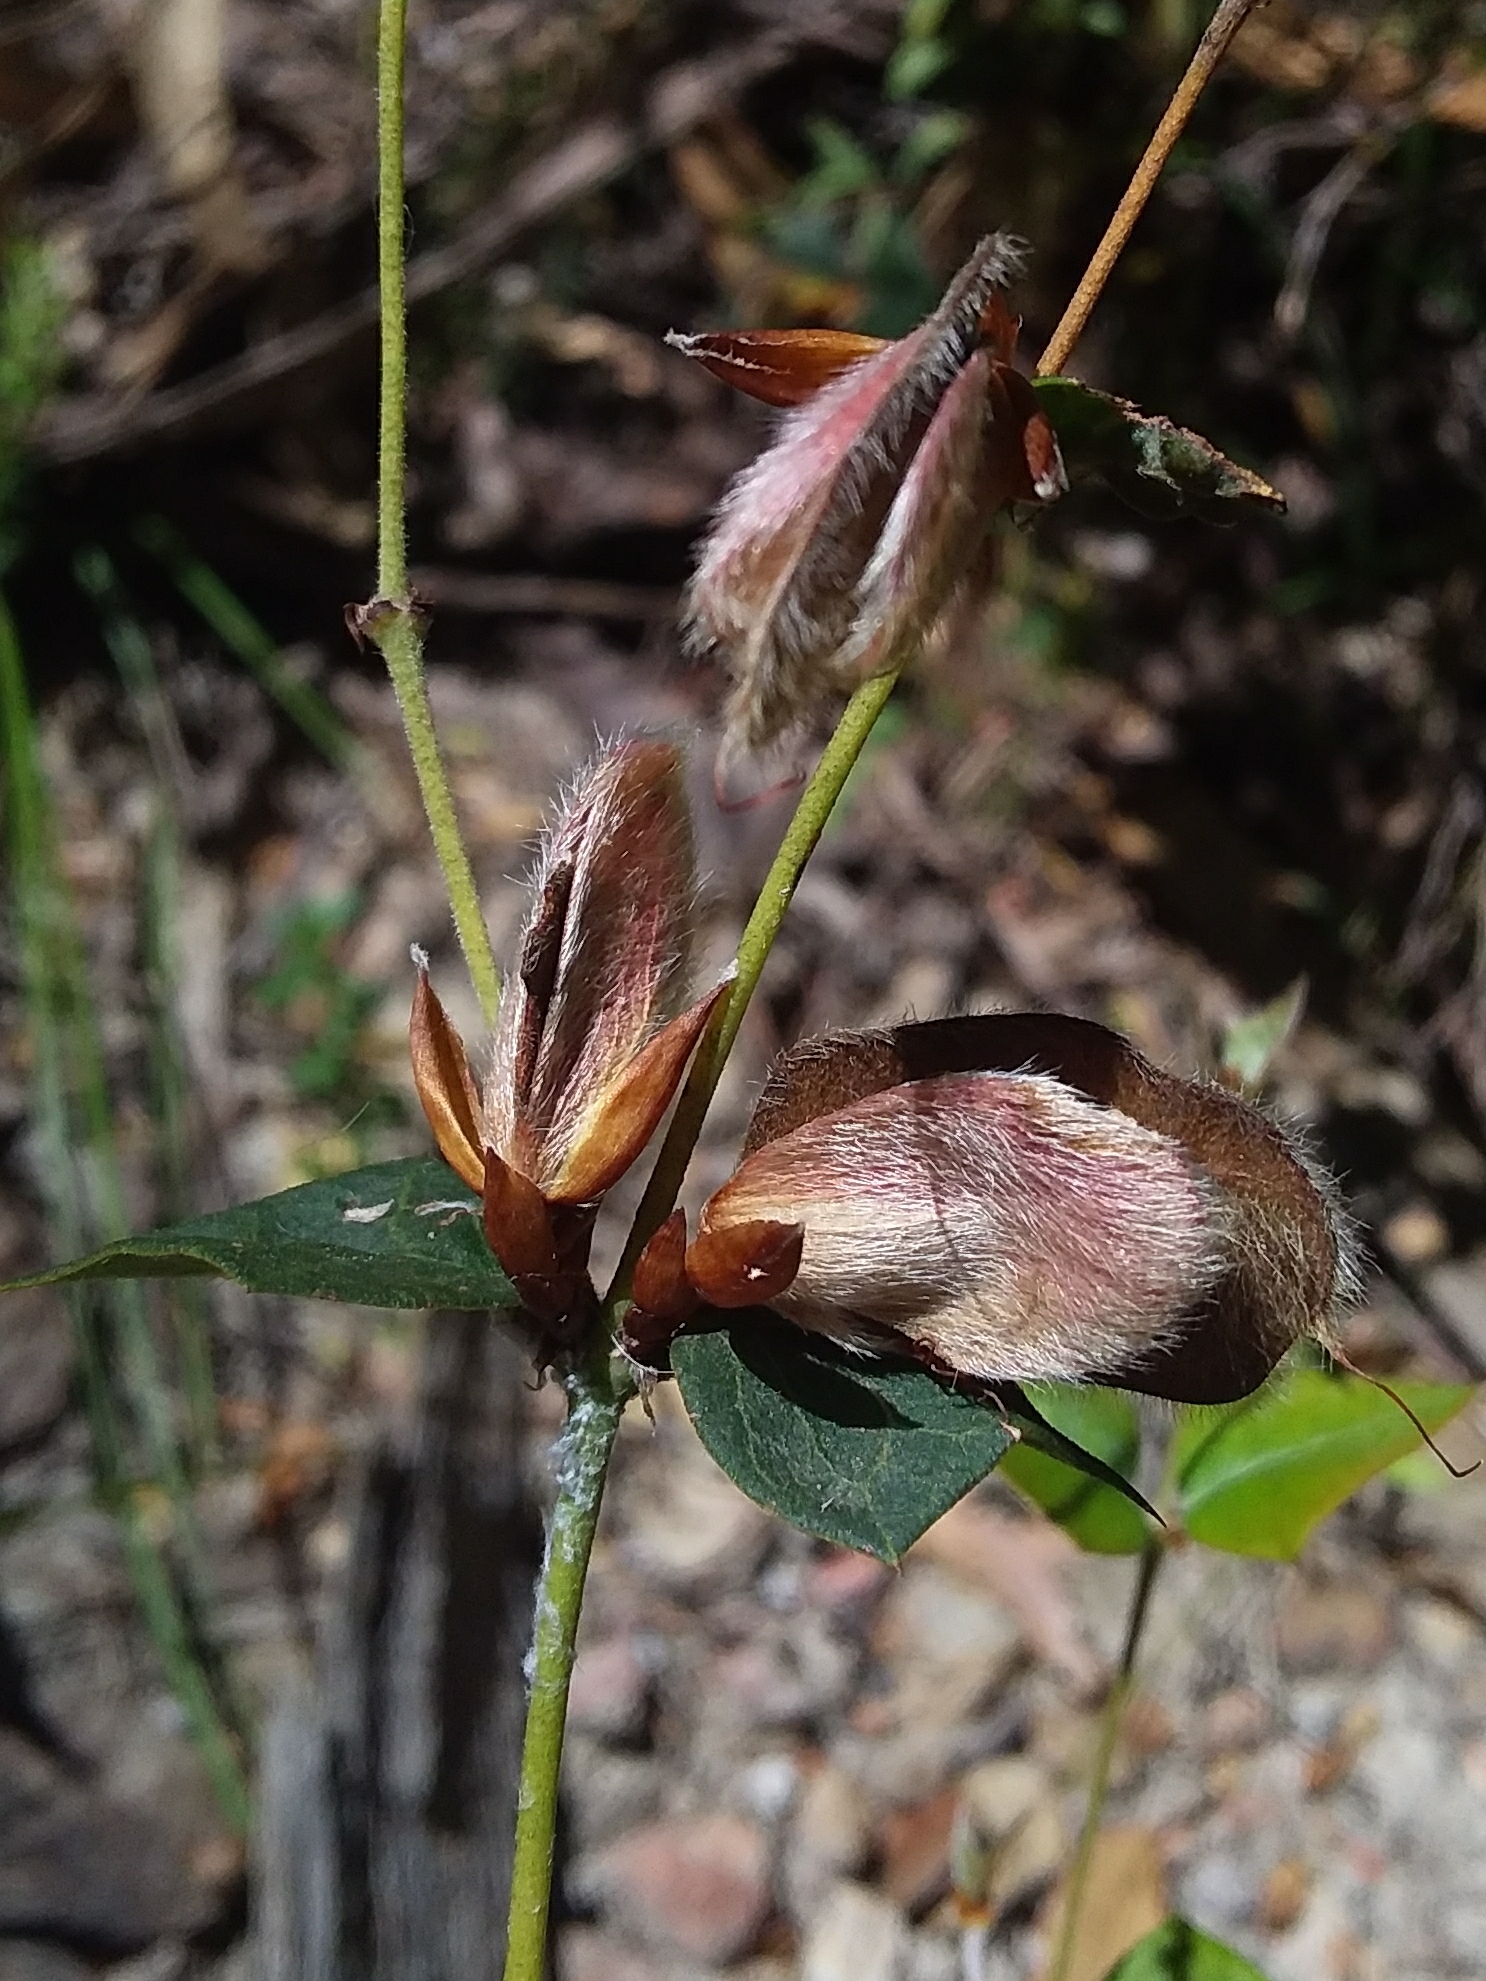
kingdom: Plantae
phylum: Tracheophyta
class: Magnoliopsida
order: Fabales
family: Fabaceae
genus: Platylobium
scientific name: Platylobium obtusangulum
